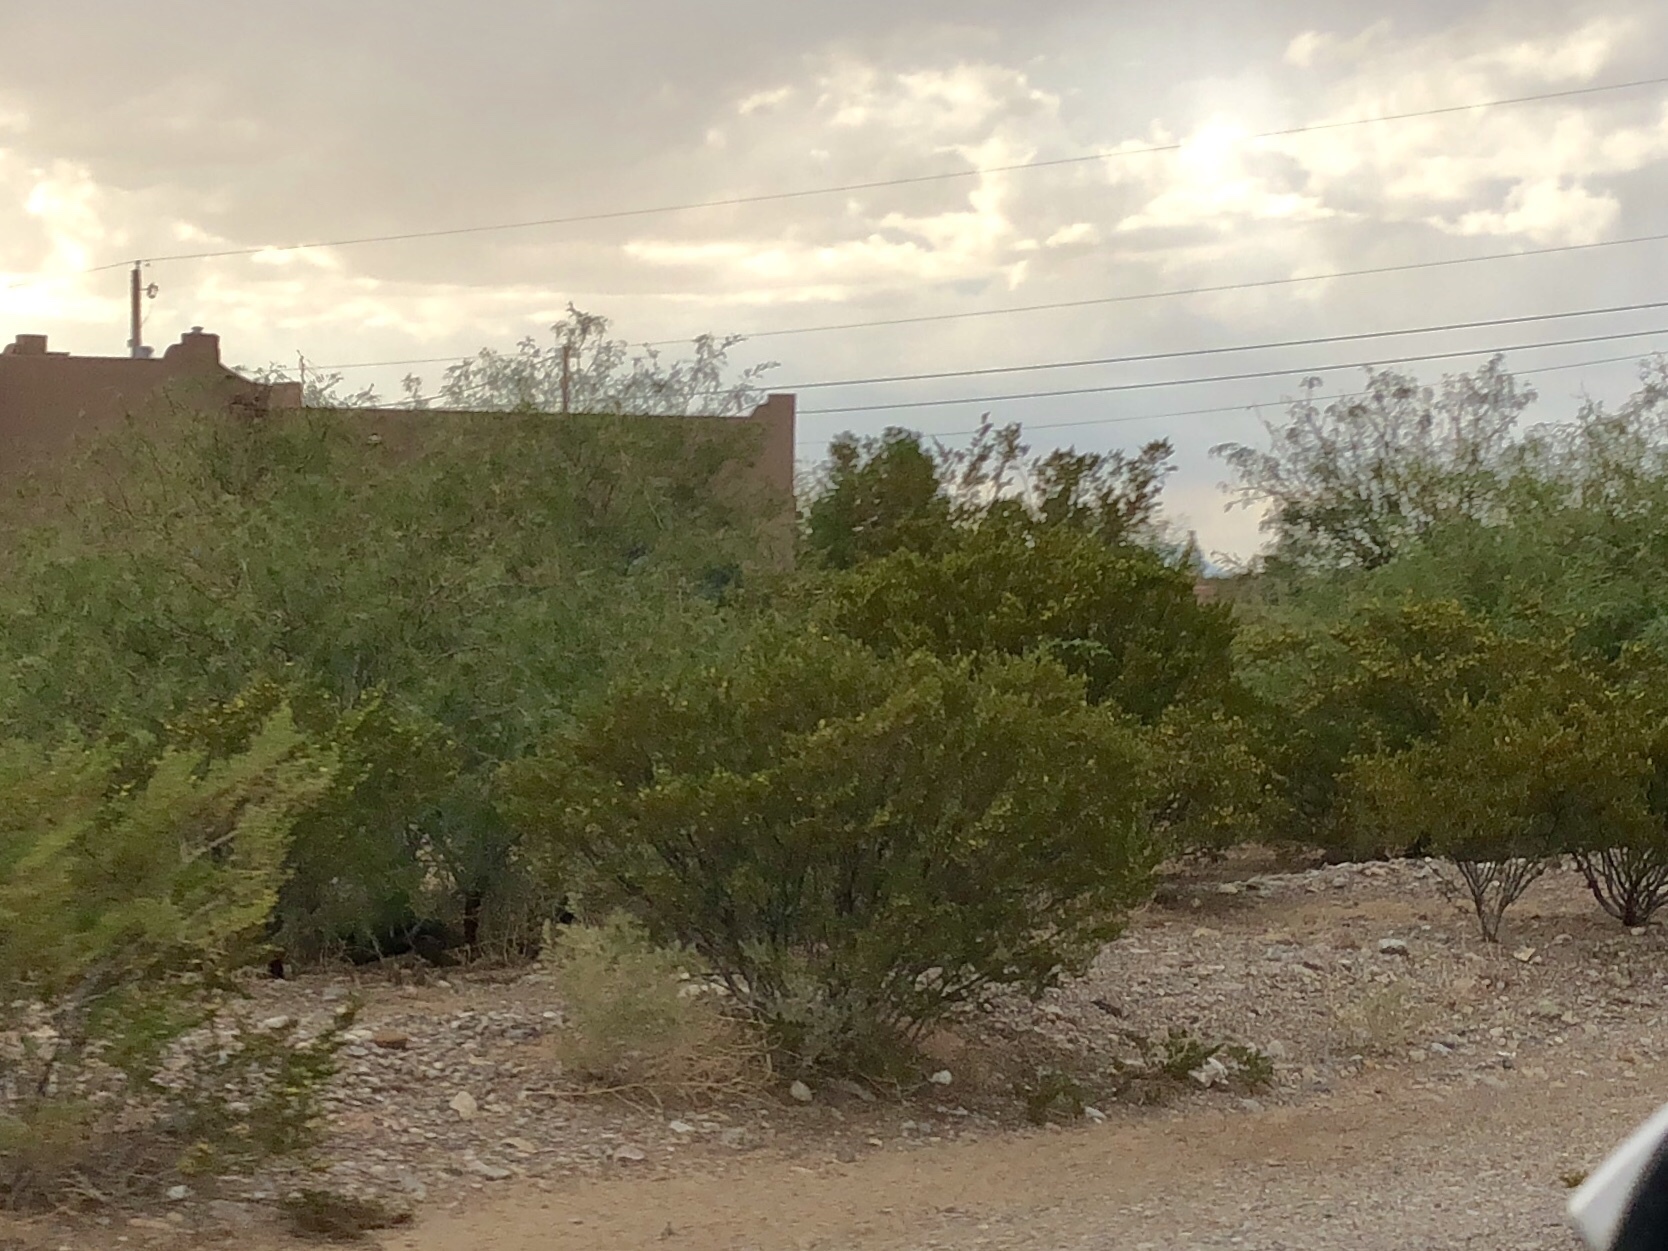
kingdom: Plantae
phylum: Tracheophyta
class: Magnoliopsida
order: Zygophyllales
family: Zygophyllaceae
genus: Larrea
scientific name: Larrea tridentata
